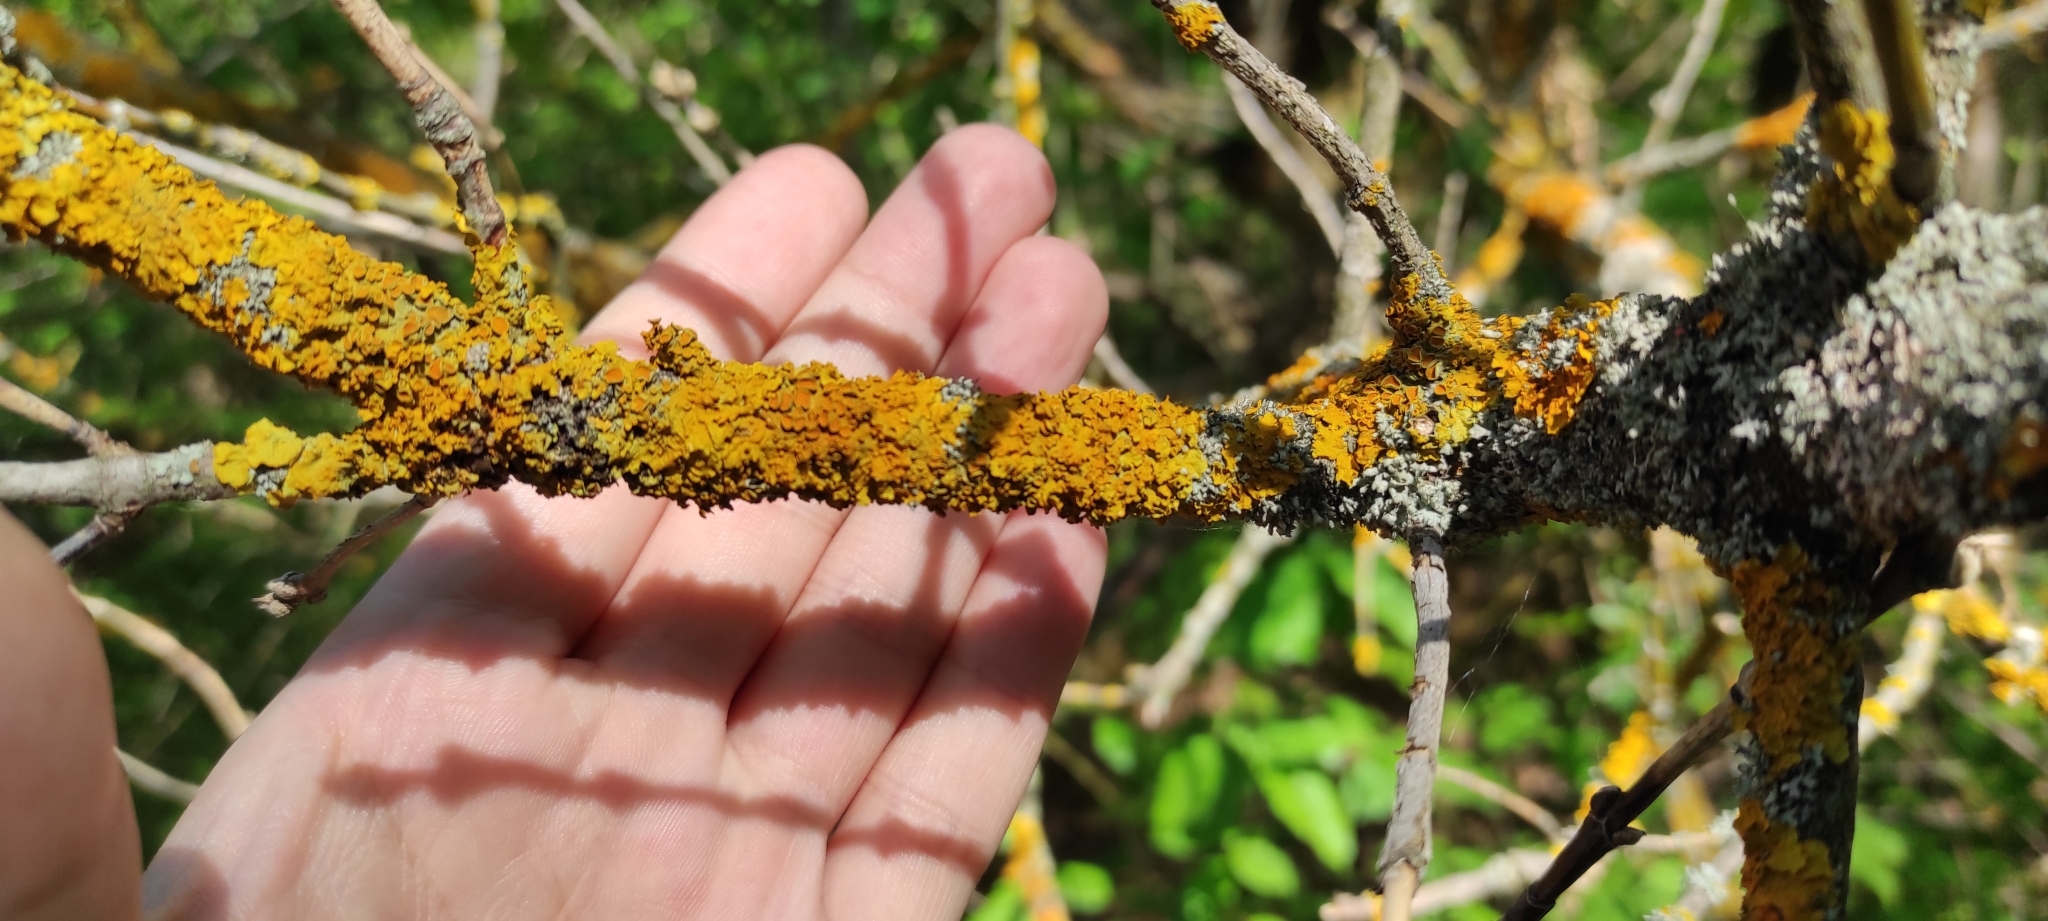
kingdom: Fungi
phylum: Ascomycota
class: Lecanoromycetes
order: Teloschistales
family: Teloschistaceae
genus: Xanthoria
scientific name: Xanthoria parietina
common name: Common orange lichen
